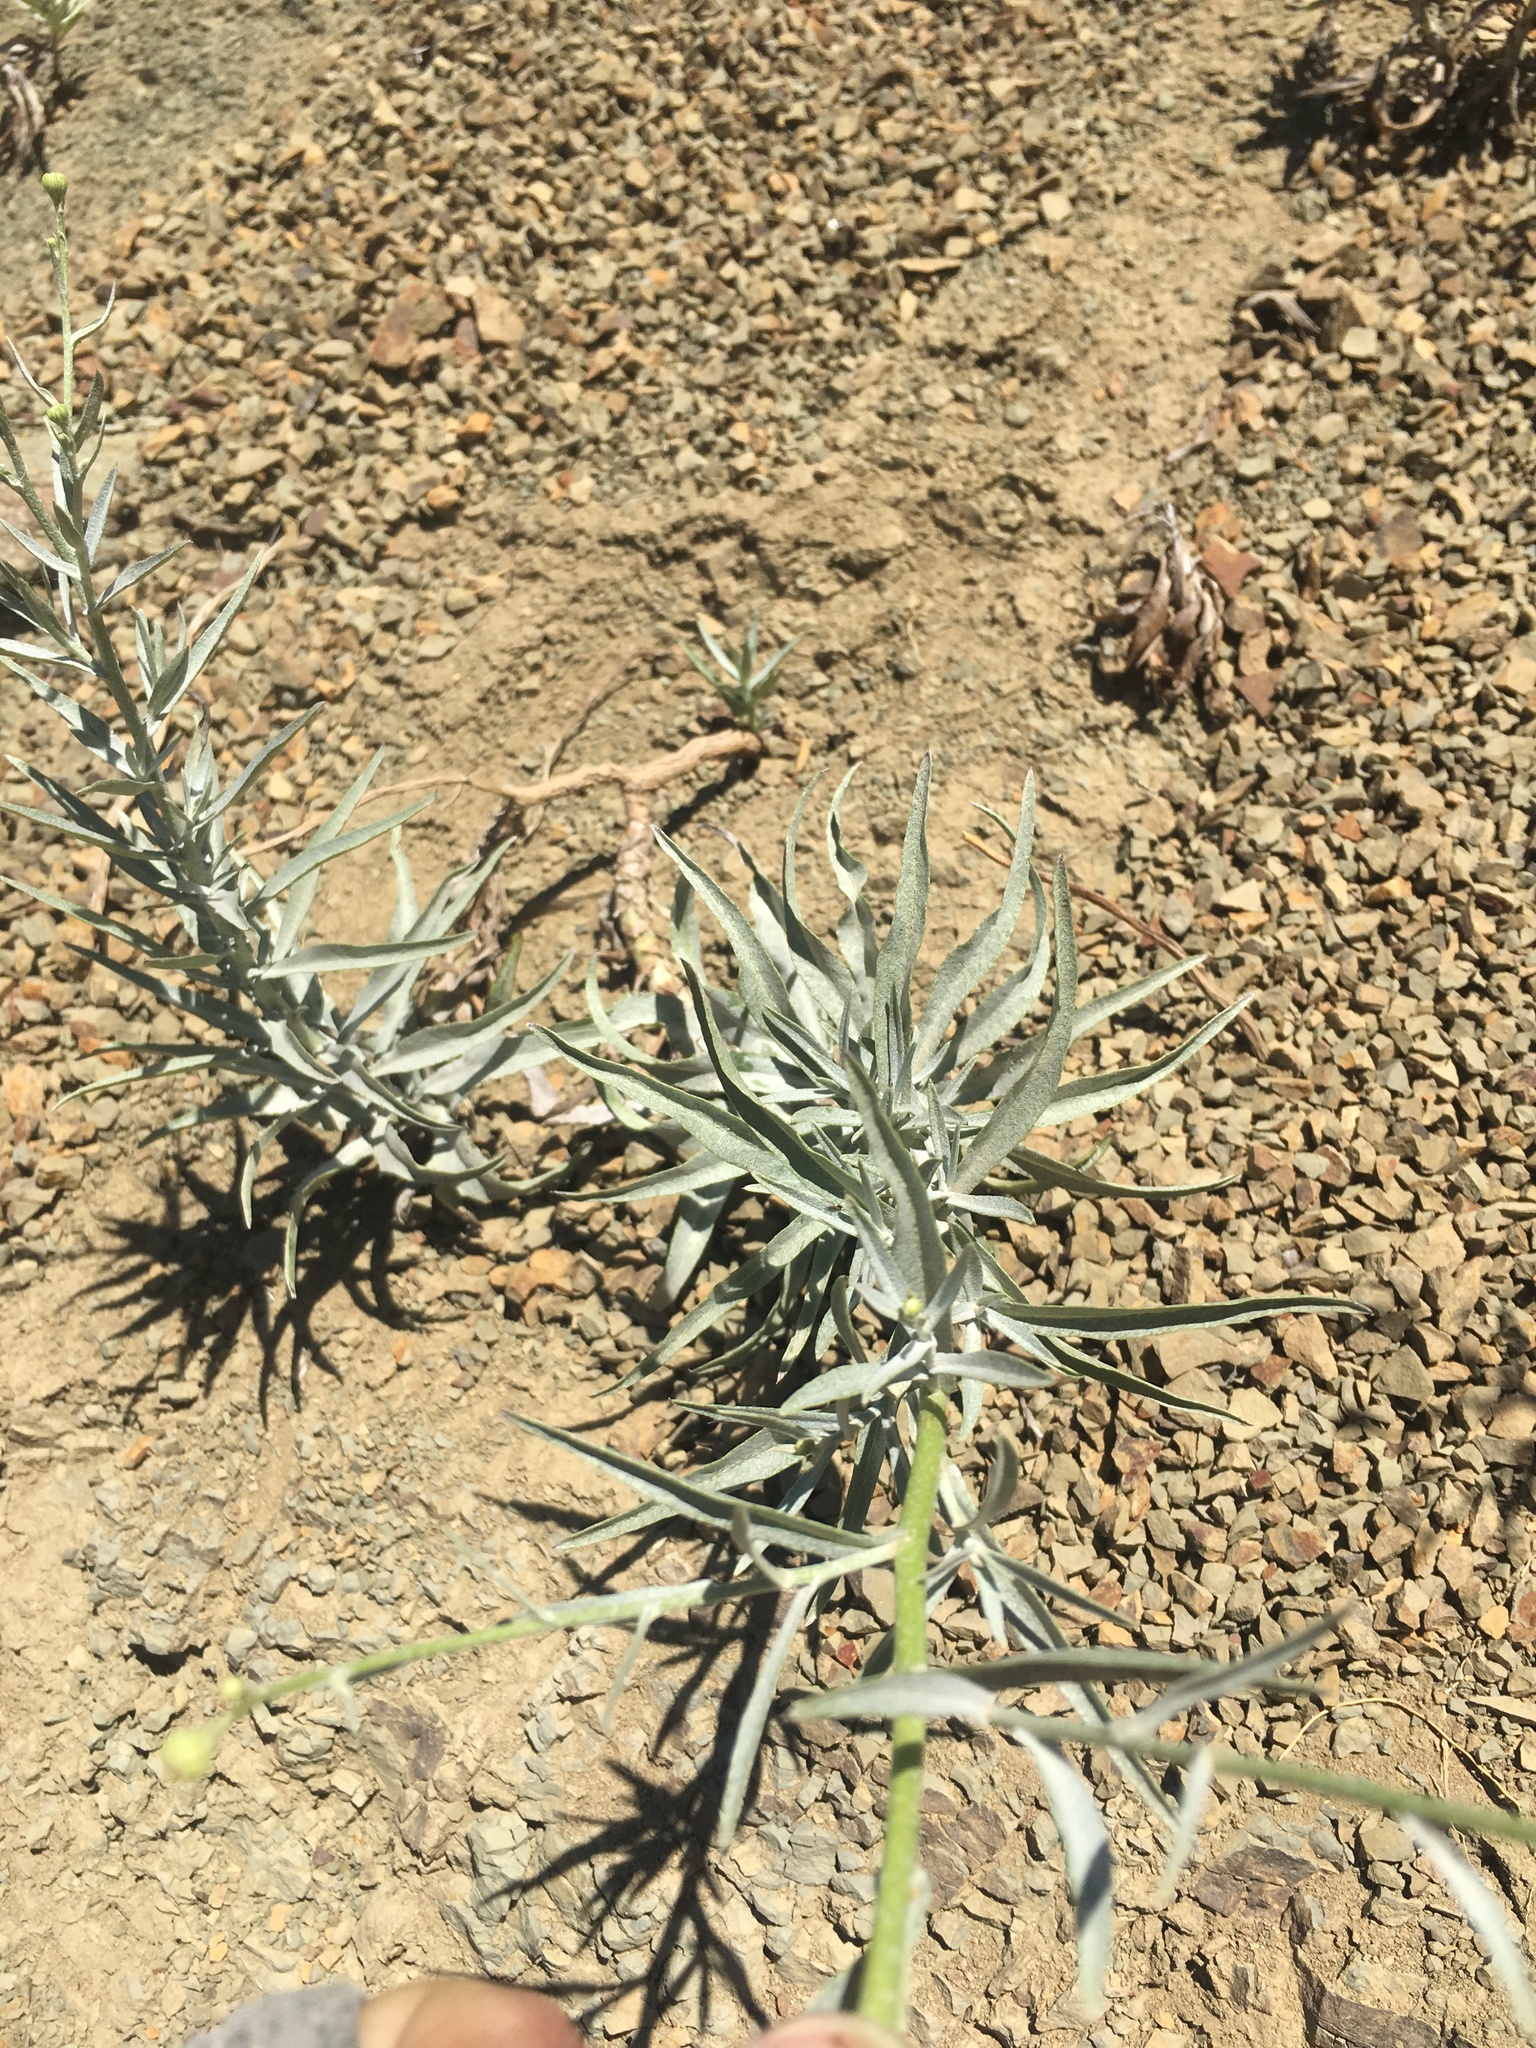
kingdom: Plantae
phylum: Tracheophyta
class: Magnoliopsida
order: Asterales
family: Asteraceae
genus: Malacothrix
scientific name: Malacothrix saxatilis
